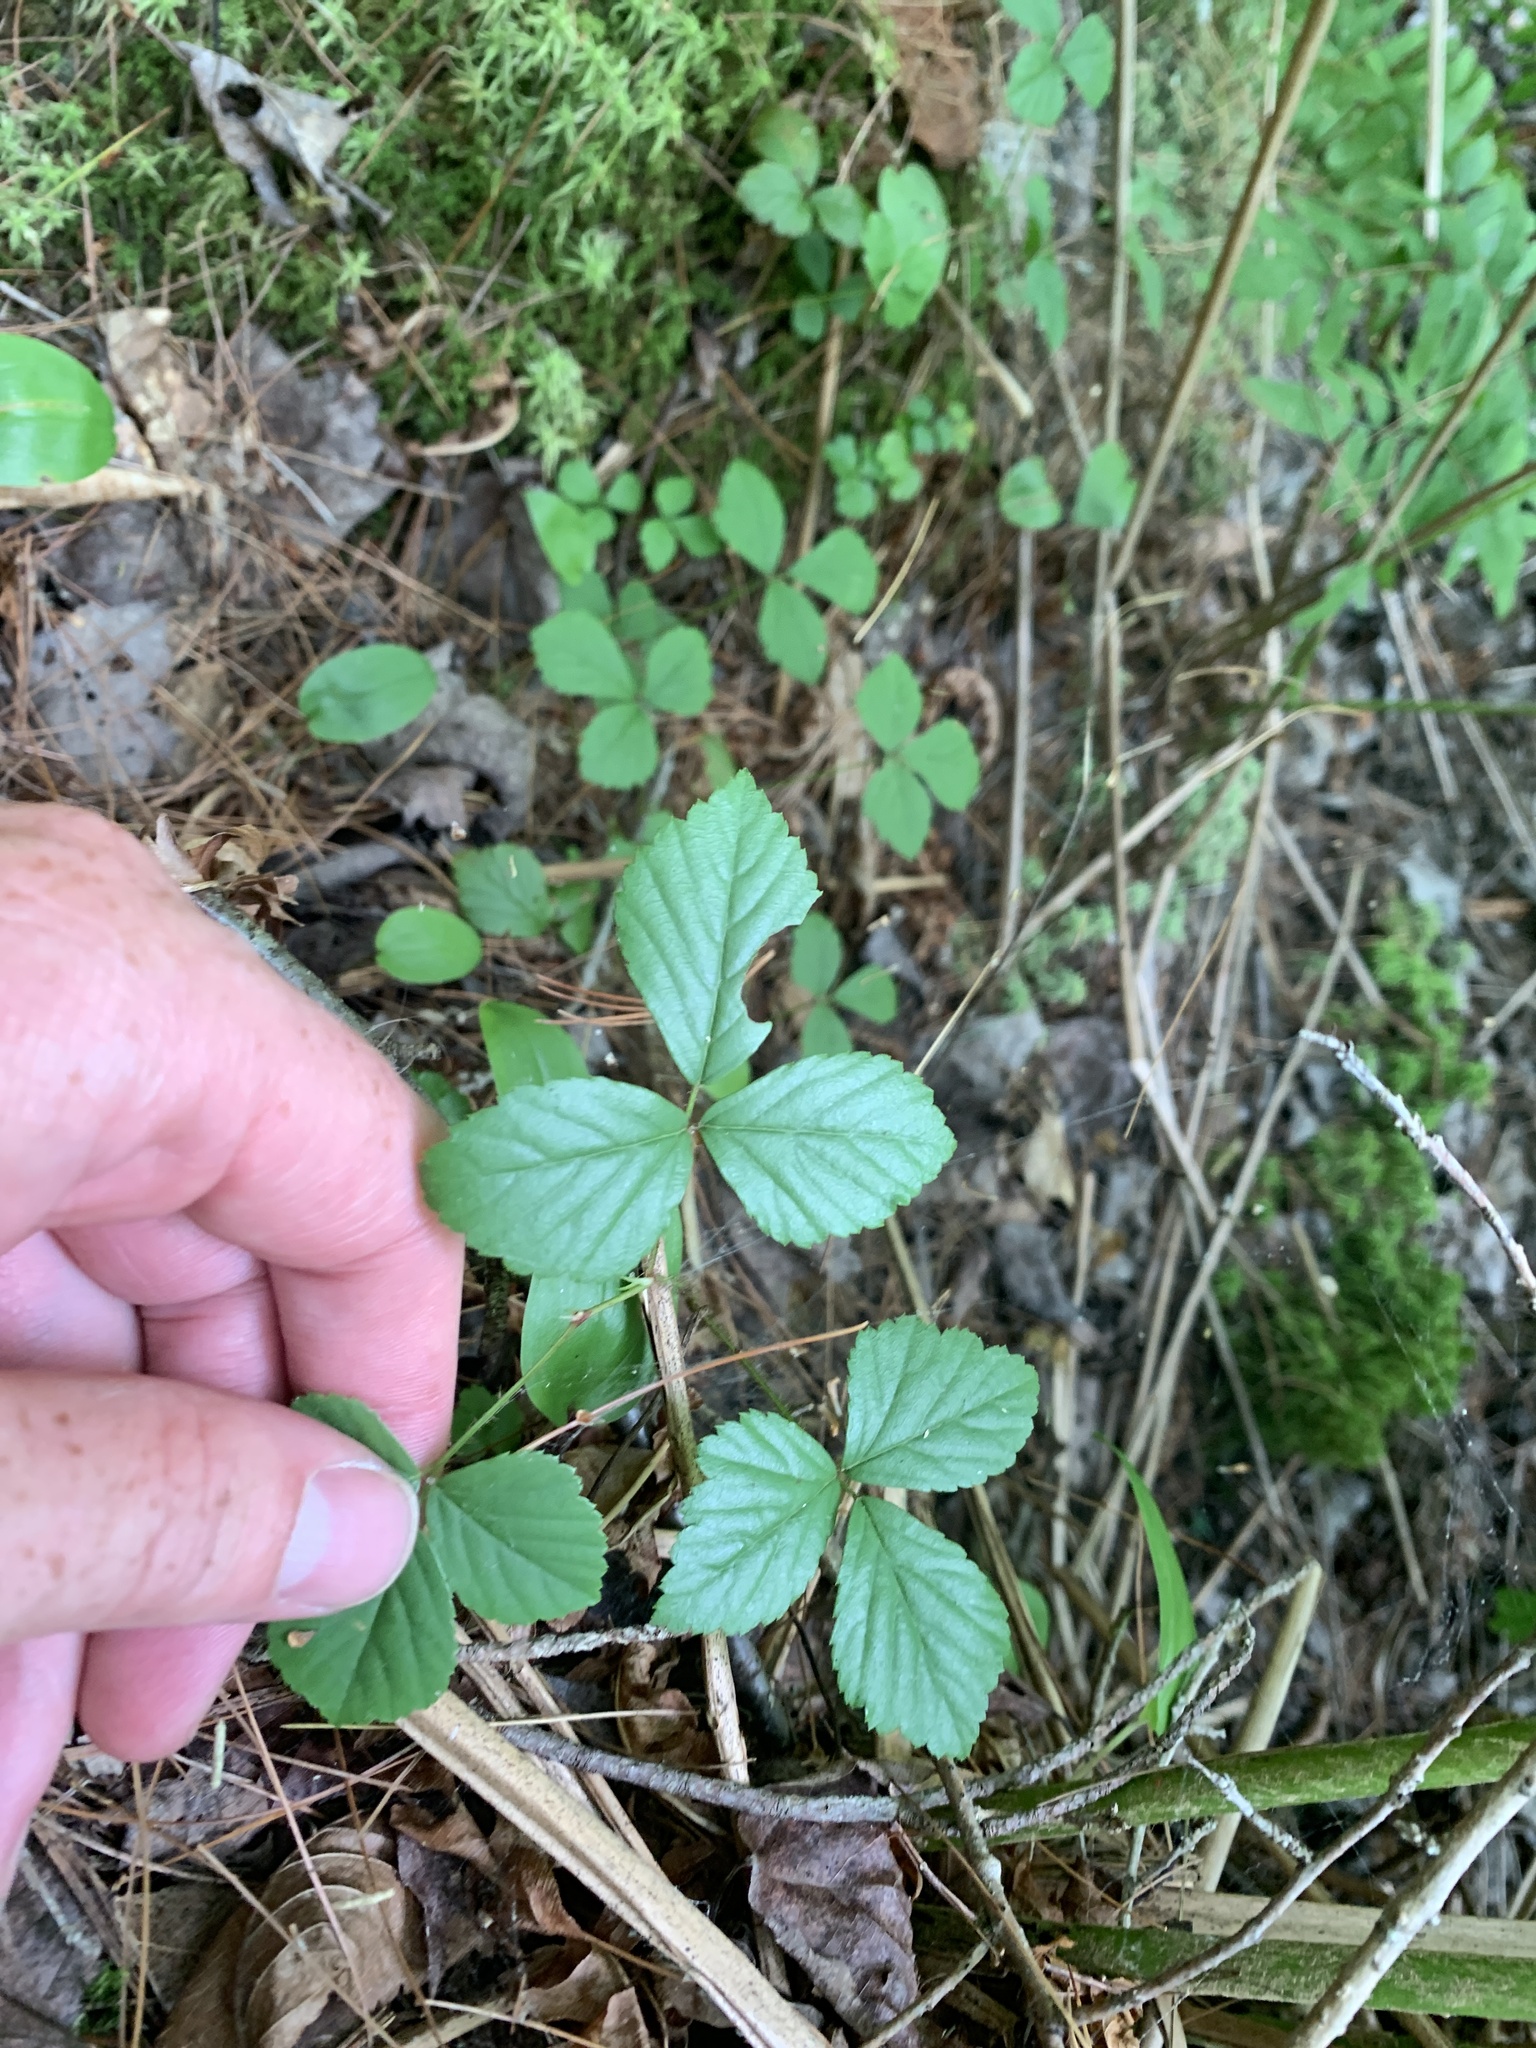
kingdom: Plantae
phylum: Tracheophyta
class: Magnoliopsida
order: Rosales
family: Rosaceae
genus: Rubus
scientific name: Rubus hispidus
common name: Running blackberry
